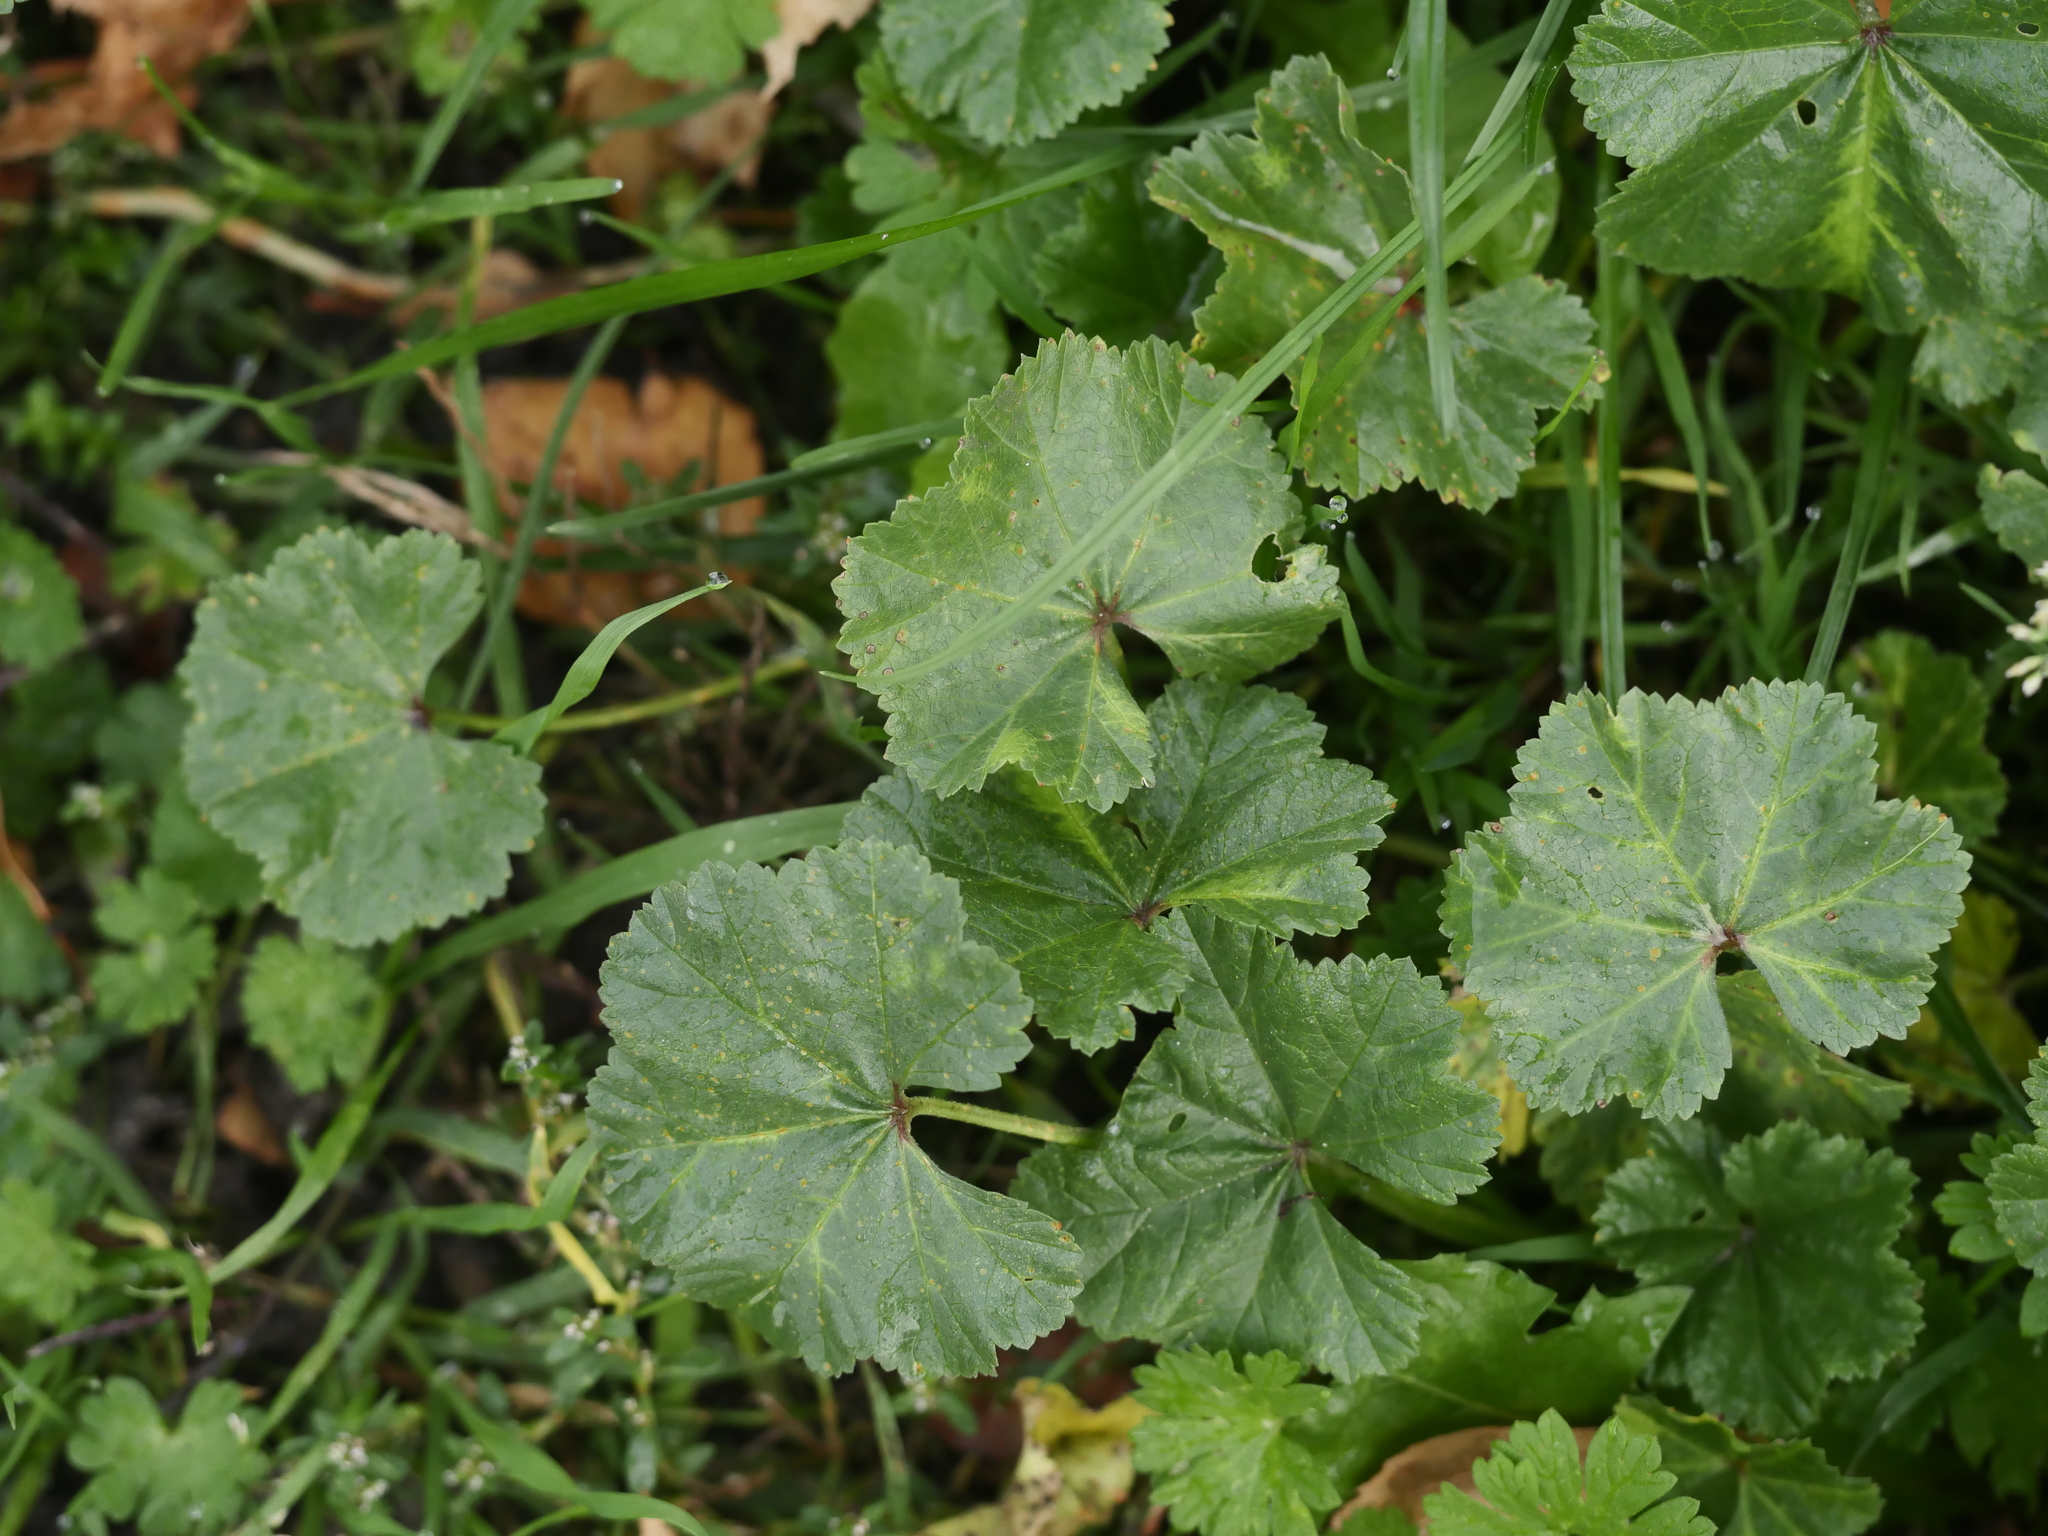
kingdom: Plantae
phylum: Tracheophyta
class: Magnoliopsida
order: Malvales
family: Malvaceae
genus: Malva
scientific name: Malva neglecta
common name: Common mallow
